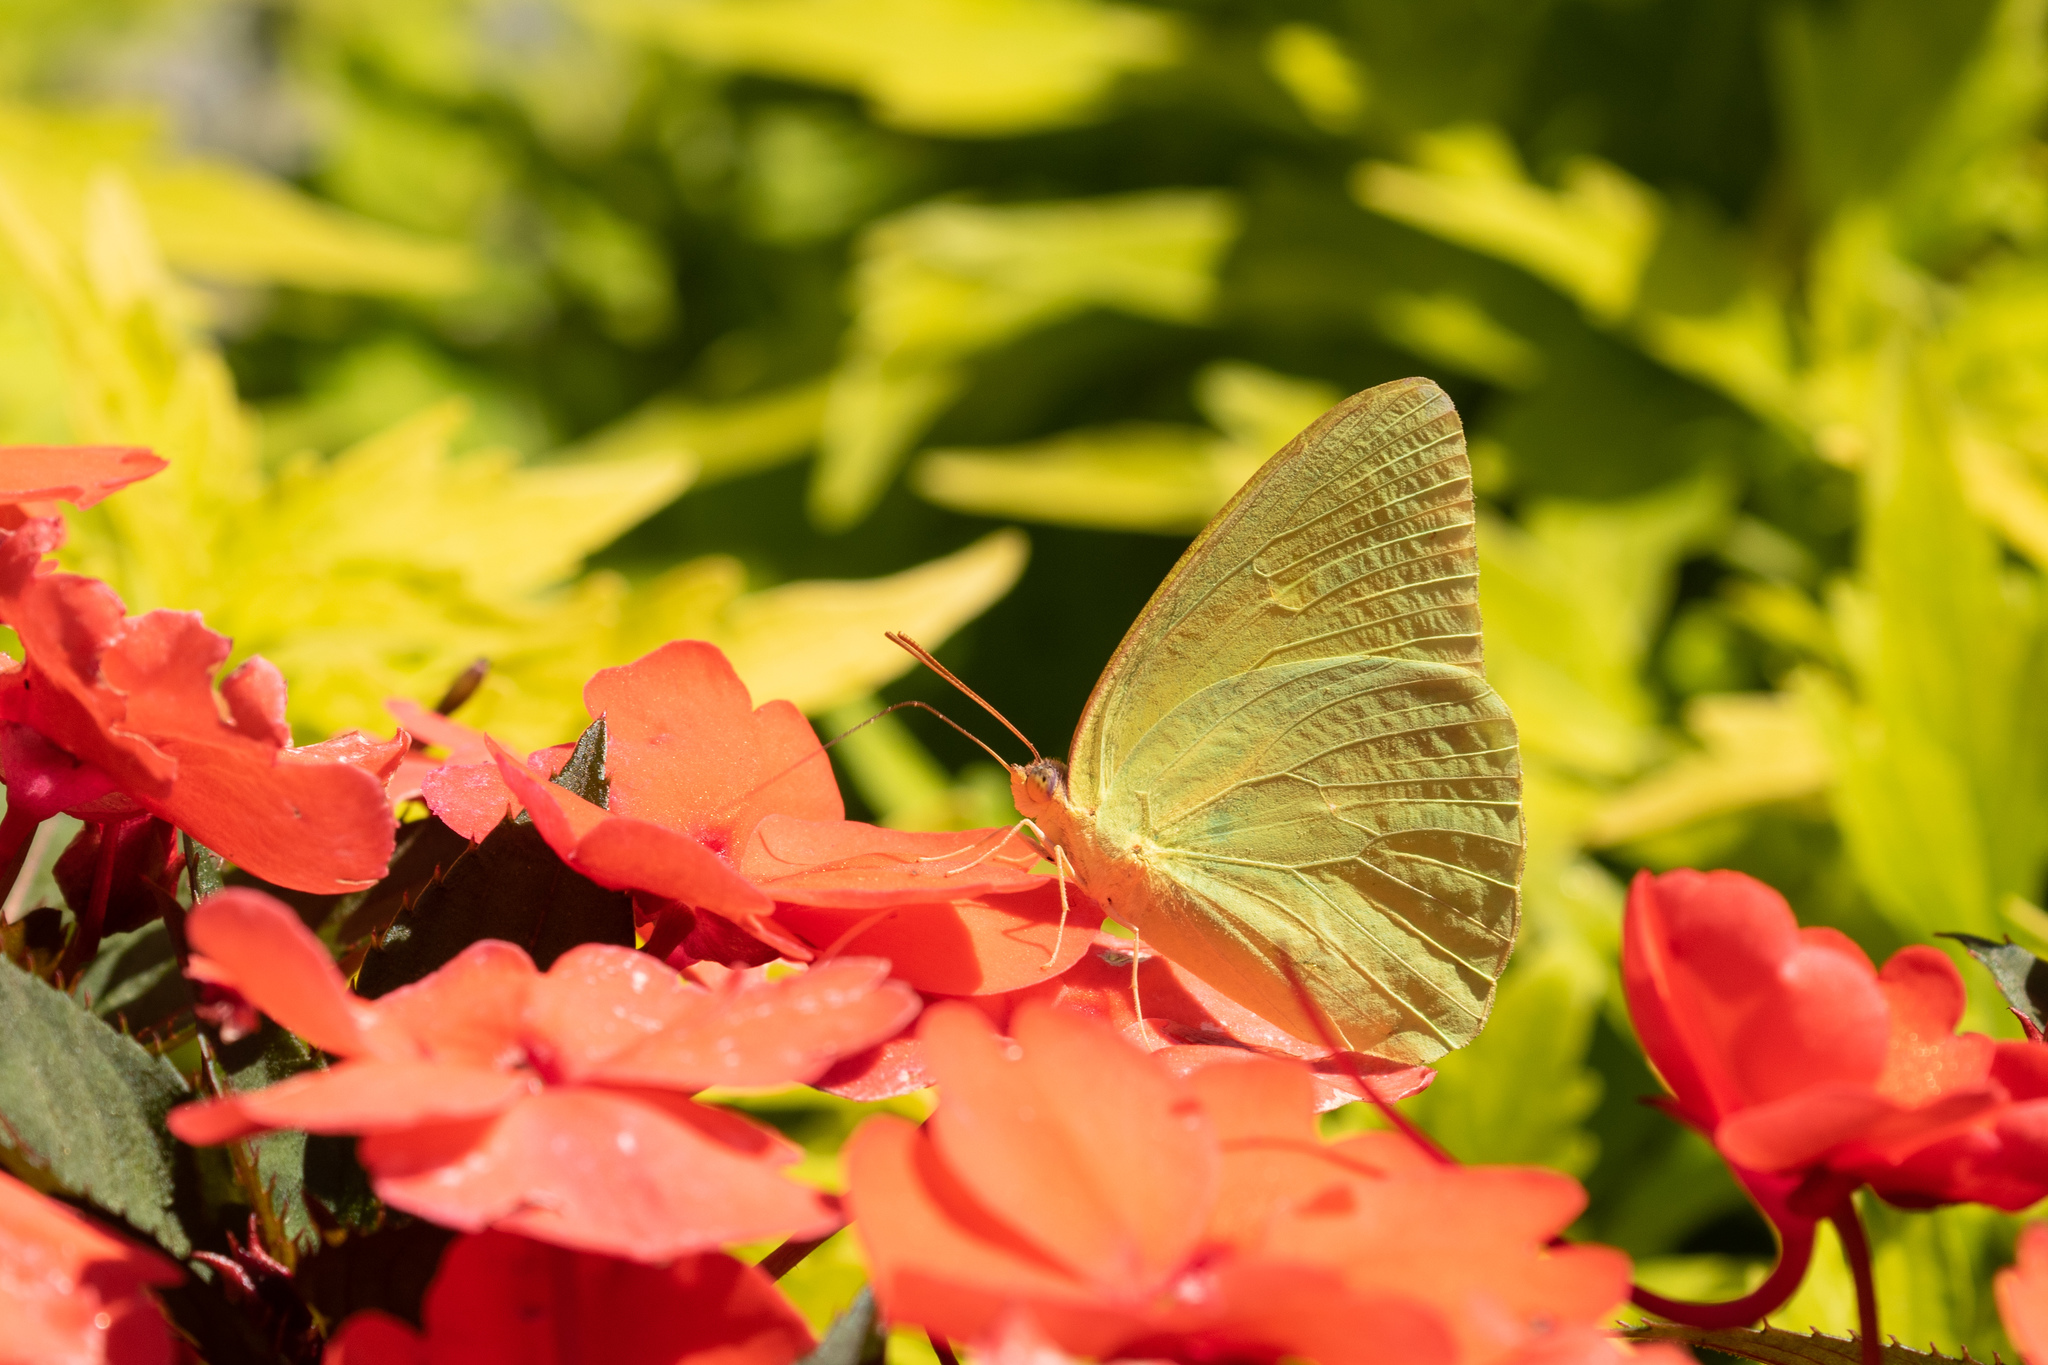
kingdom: Animalia
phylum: Arthropoda
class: Insecta
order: Lepidoptera
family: Pieridae
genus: Phoebis
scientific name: Phoebis sennae
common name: Cloudless sulphur
